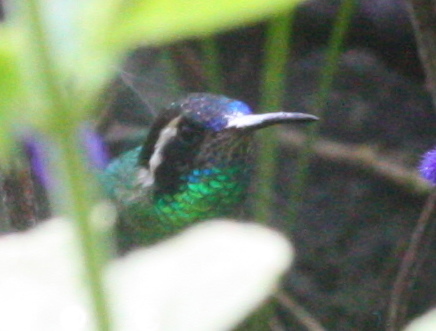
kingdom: Animalia
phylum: Chordata
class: Aves
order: Apodiformes
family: Trochilidae
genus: Basilinna
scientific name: Basilinna leucotis
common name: White-eared hummingbird
